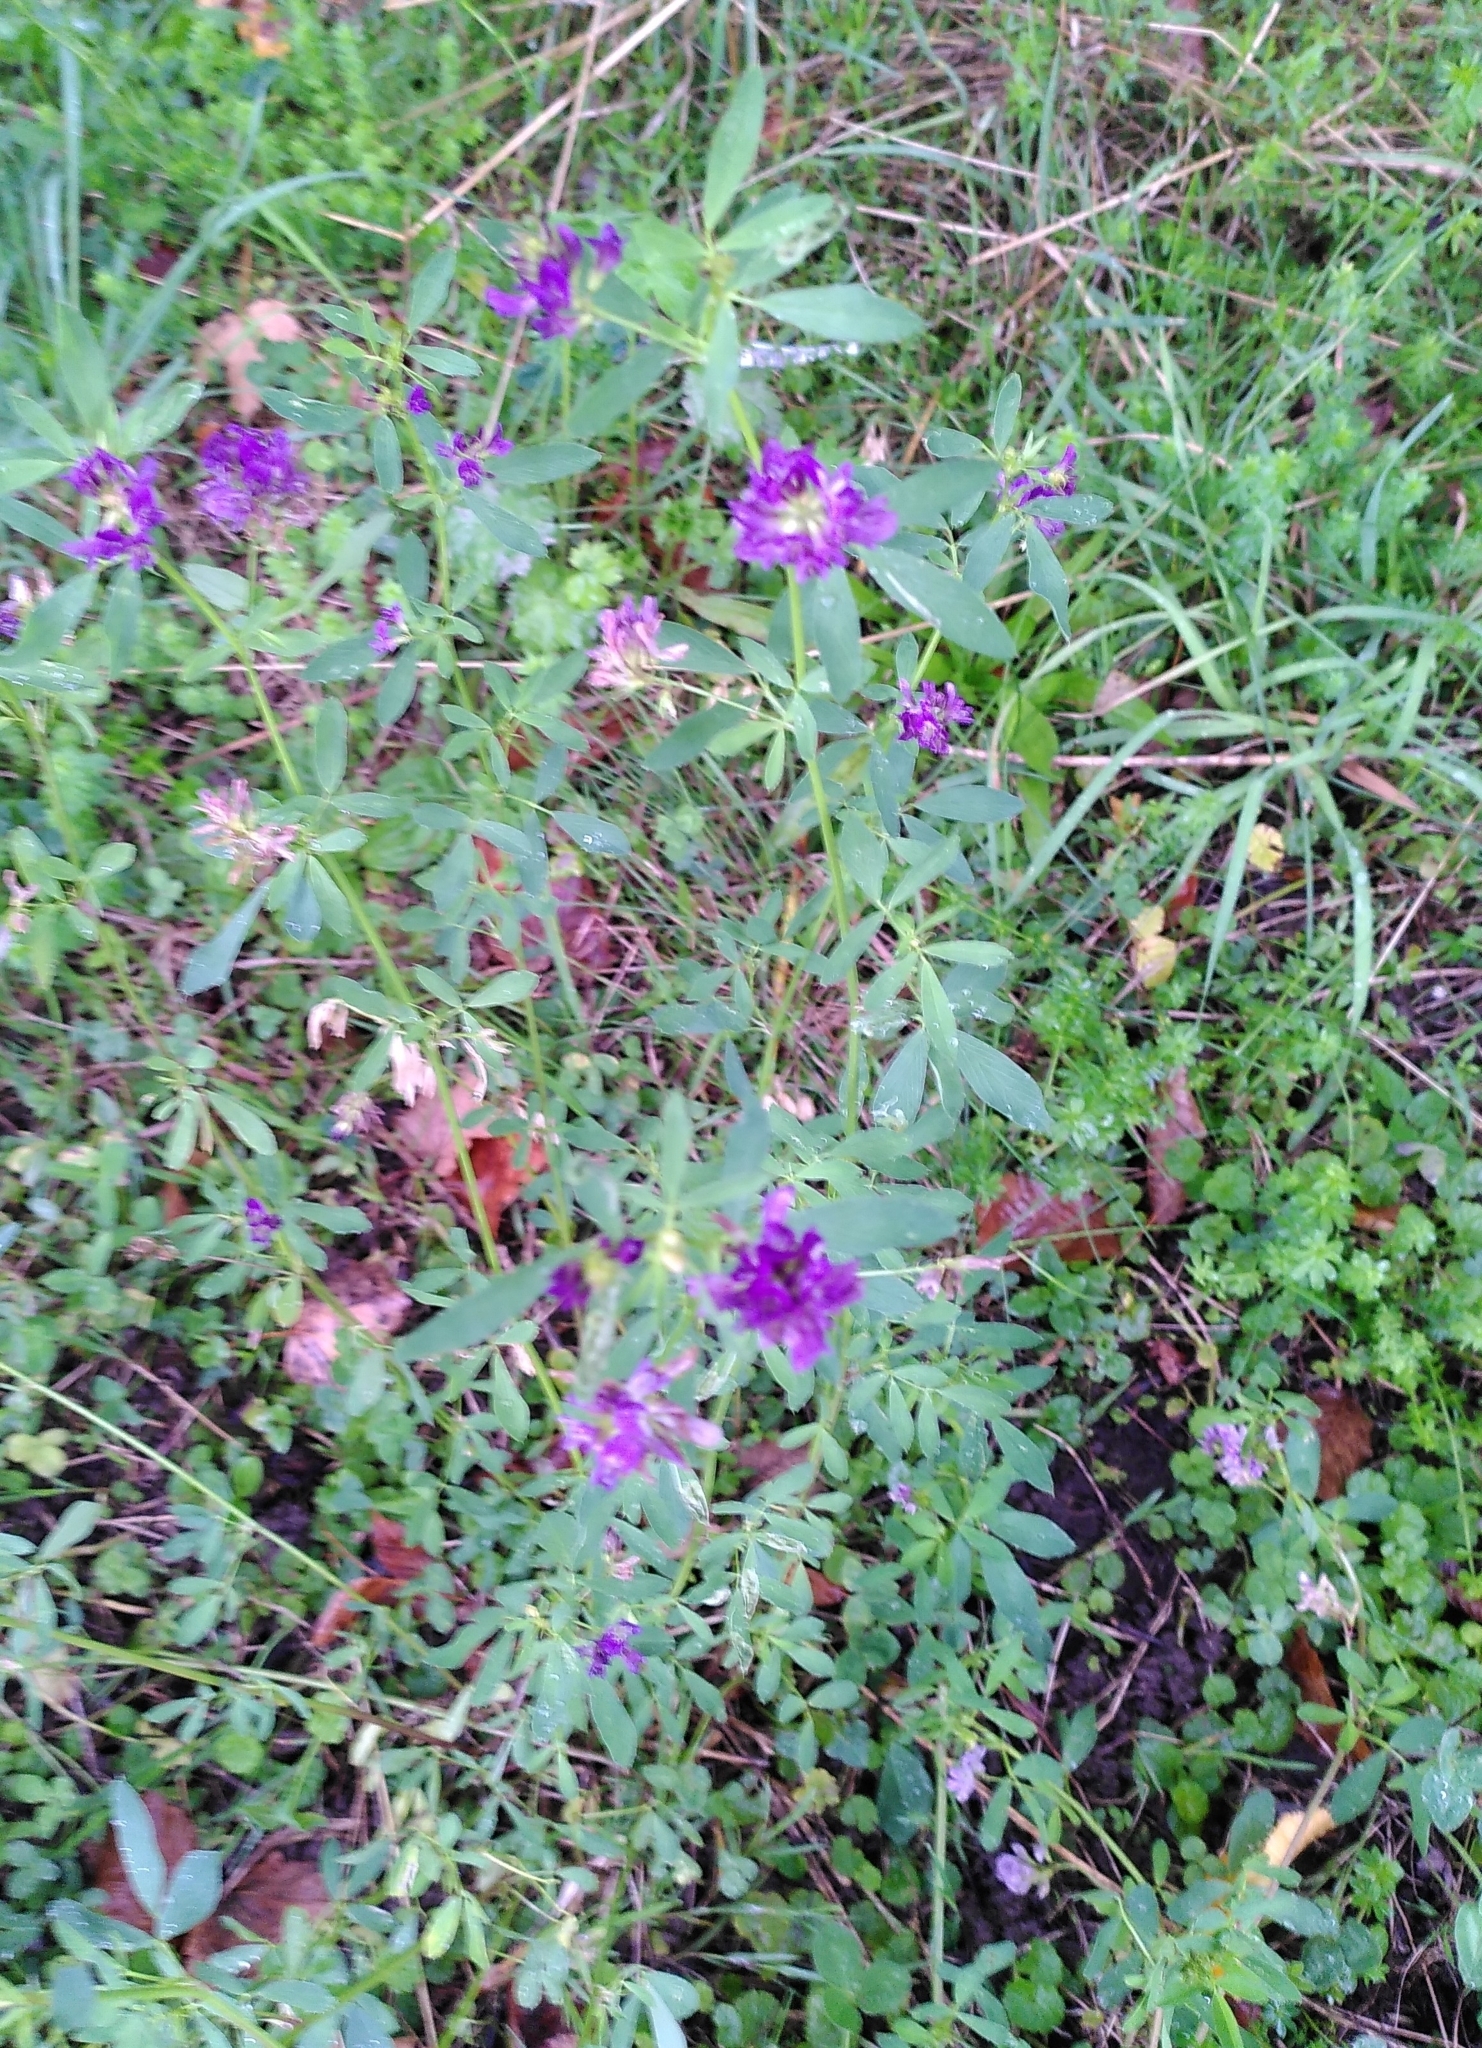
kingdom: Plantae
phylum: Tracheophyta
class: Magnoliopsida
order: Fabales
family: Fabaceae
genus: Medicago
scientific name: Medicago sativa
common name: Alfalfa
